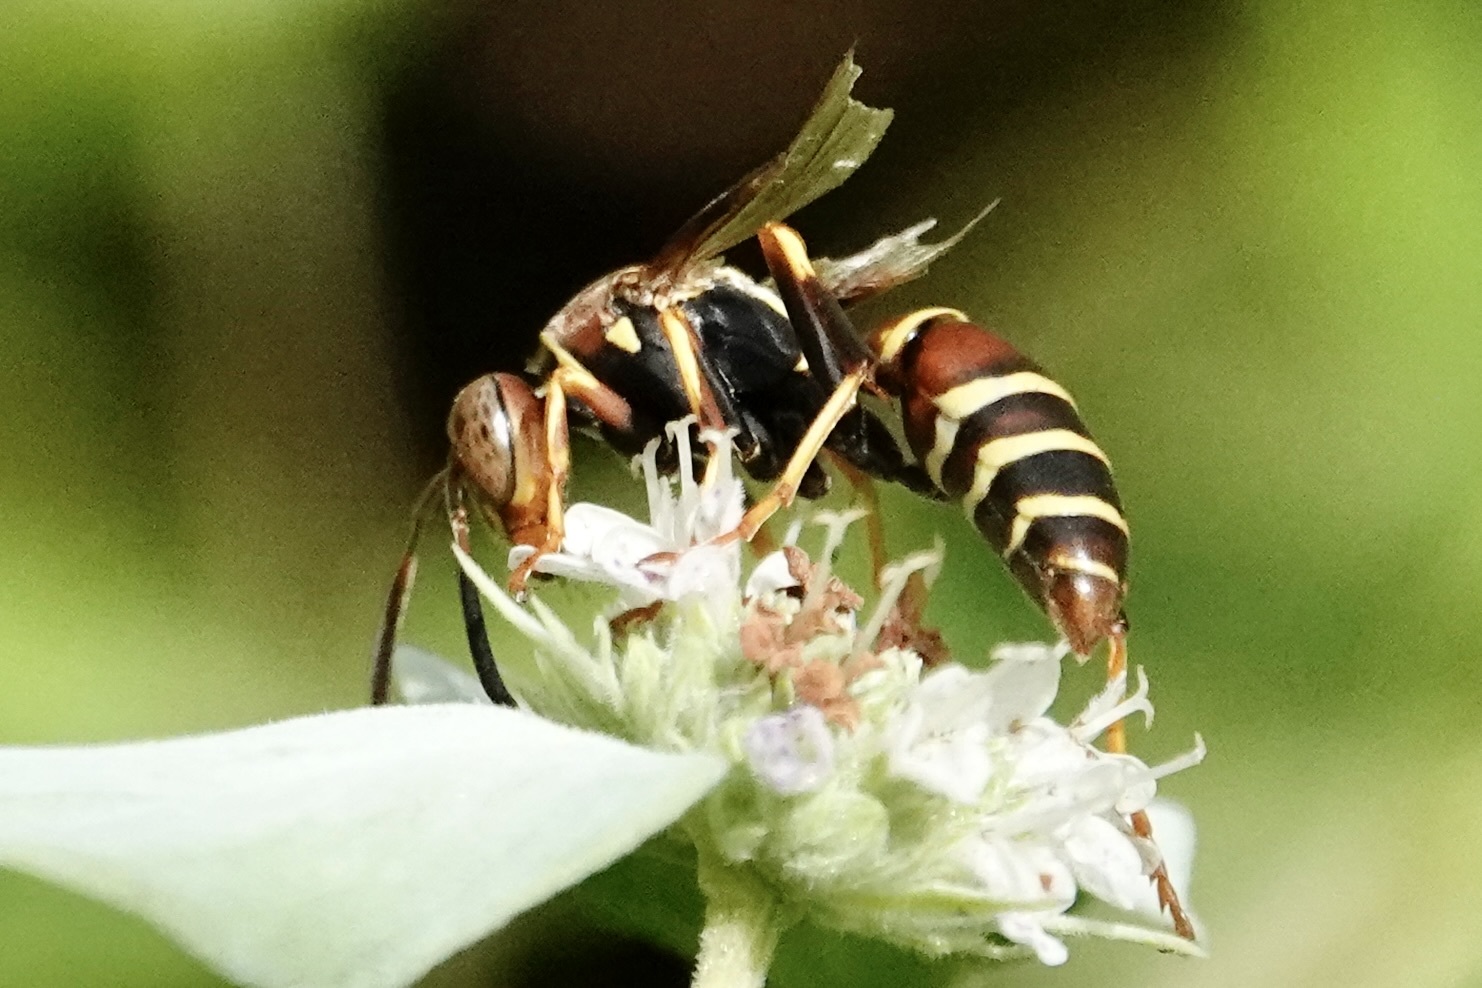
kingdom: Animalia
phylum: Arthropoda
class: Insecta
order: Hymenoptera
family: Eumenidae
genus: Polistes
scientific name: Polistes dorsalis
